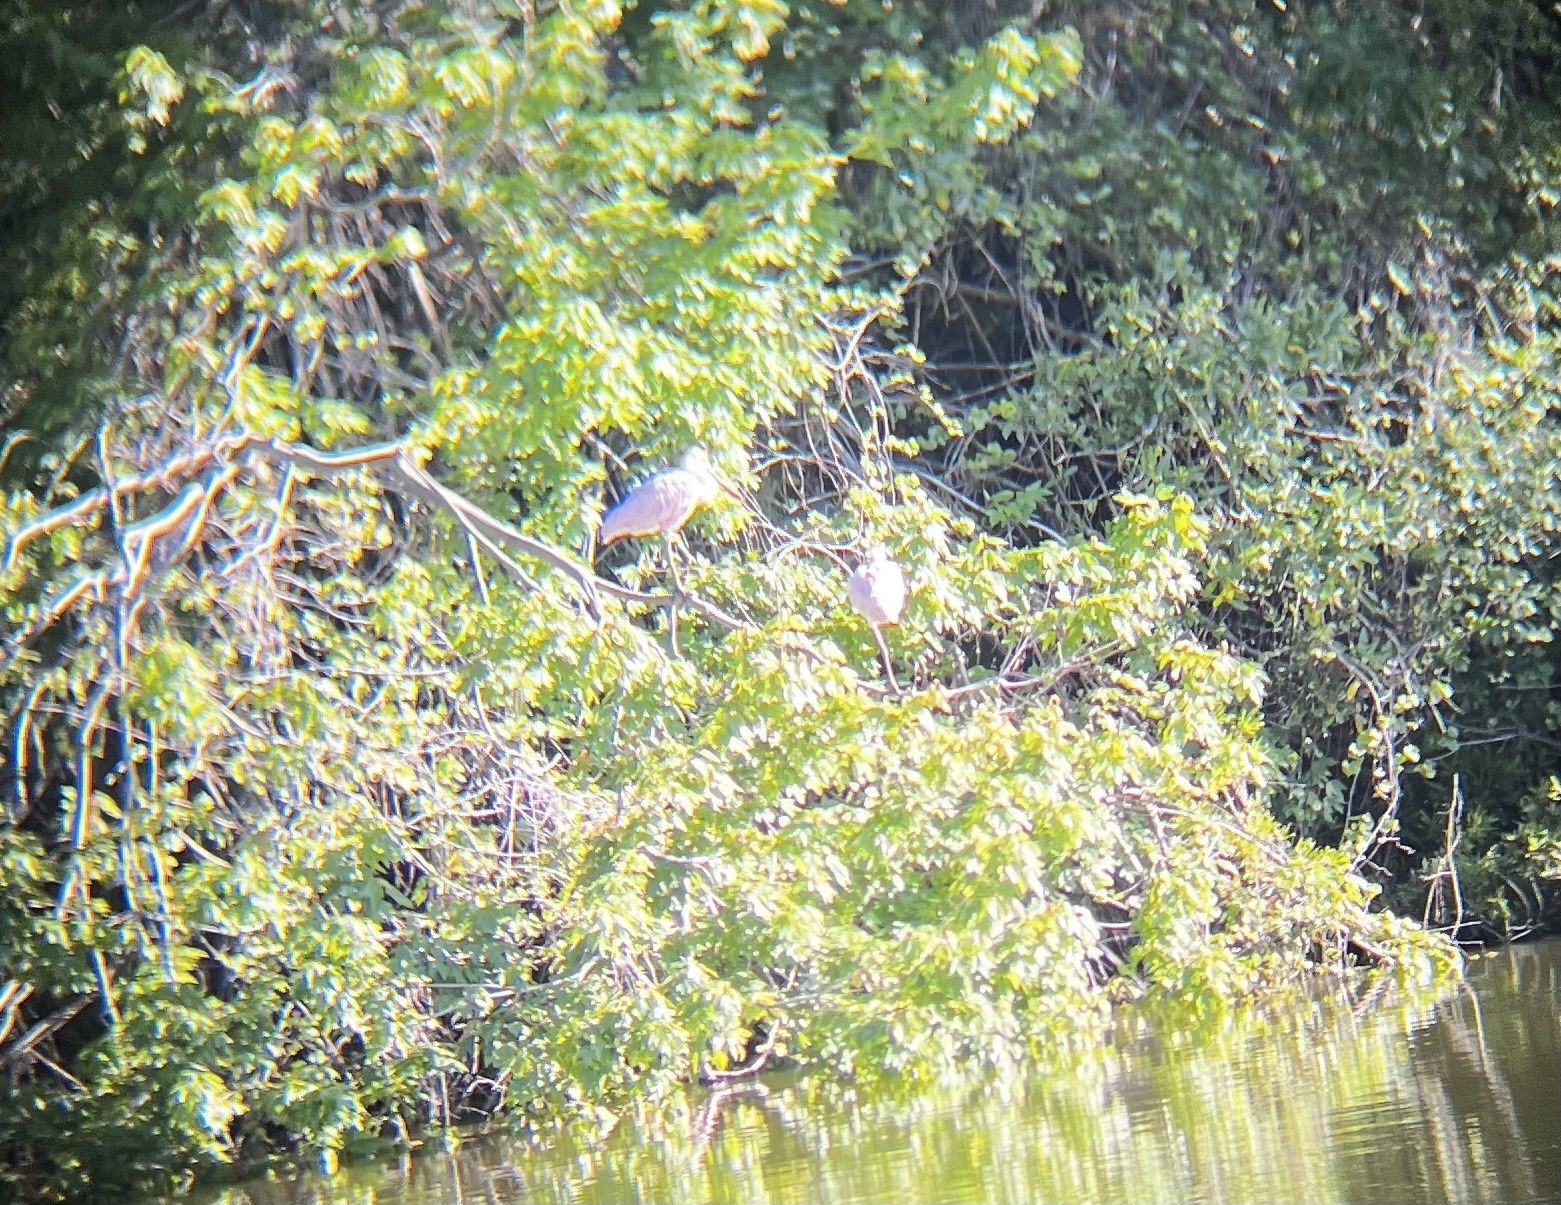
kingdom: Animalia
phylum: Chordata
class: Aves
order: Pelecaniformes
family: Threskiornithidae
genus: Platalea
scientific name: Platalea ajaja
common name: Roseate spoonbill
